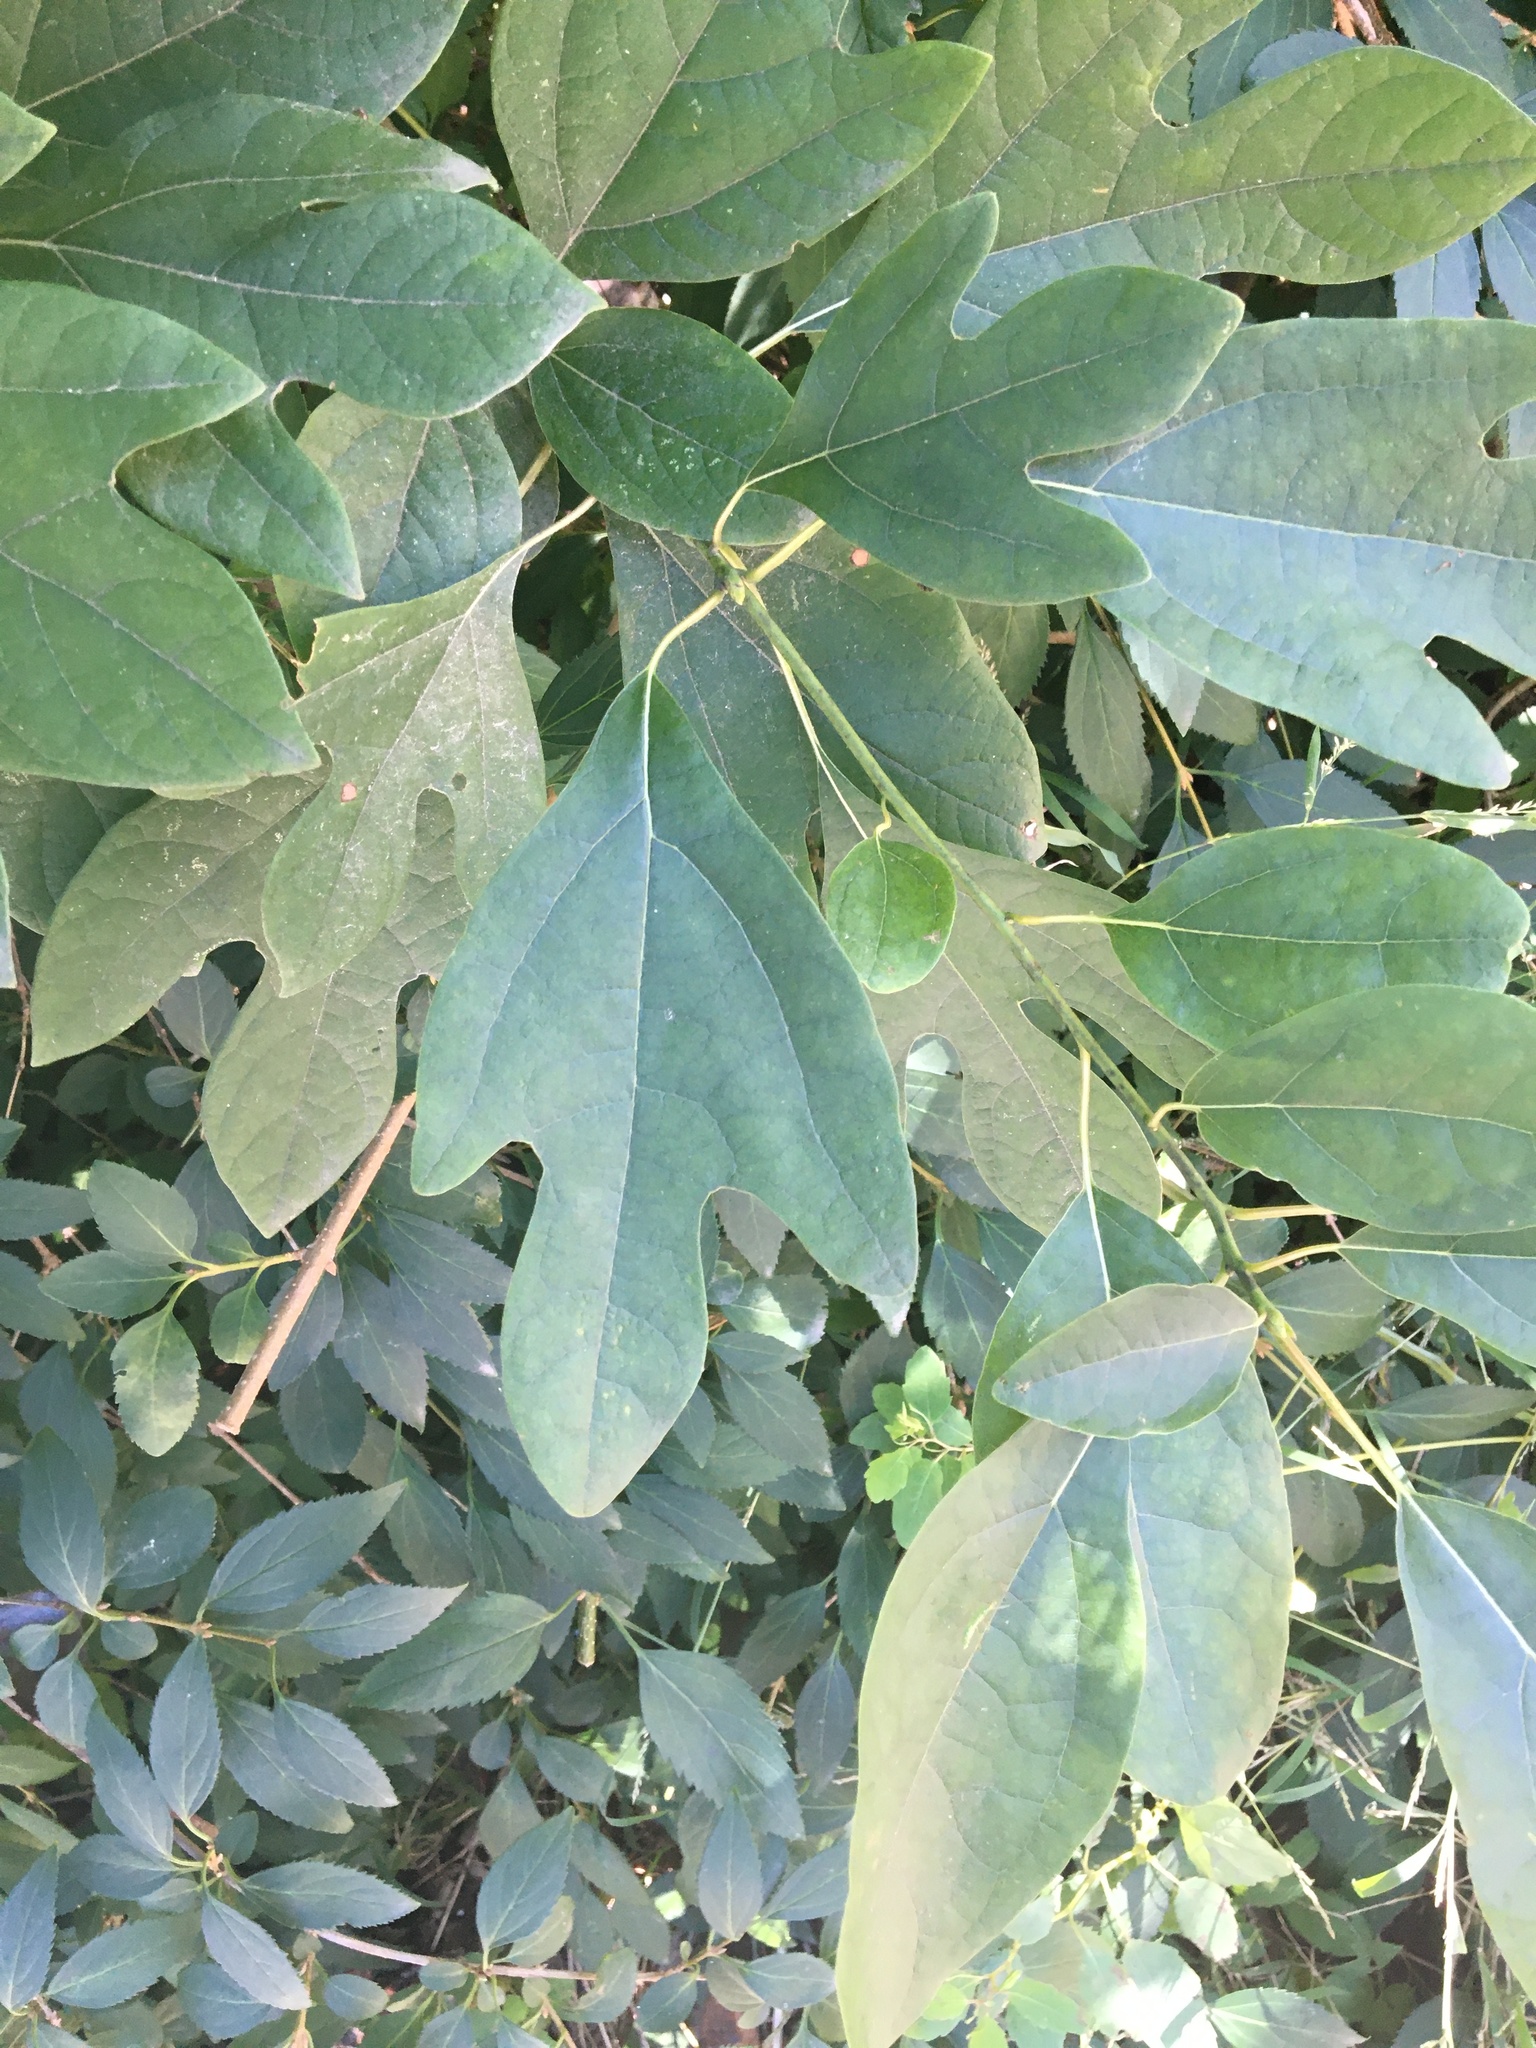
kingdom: Plantae
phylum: Tracheophyta
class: Magnoliopsida
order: Laurales
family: Lauraceae
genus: Sassafras
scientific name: Sassafras albidum
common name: Sassafras
